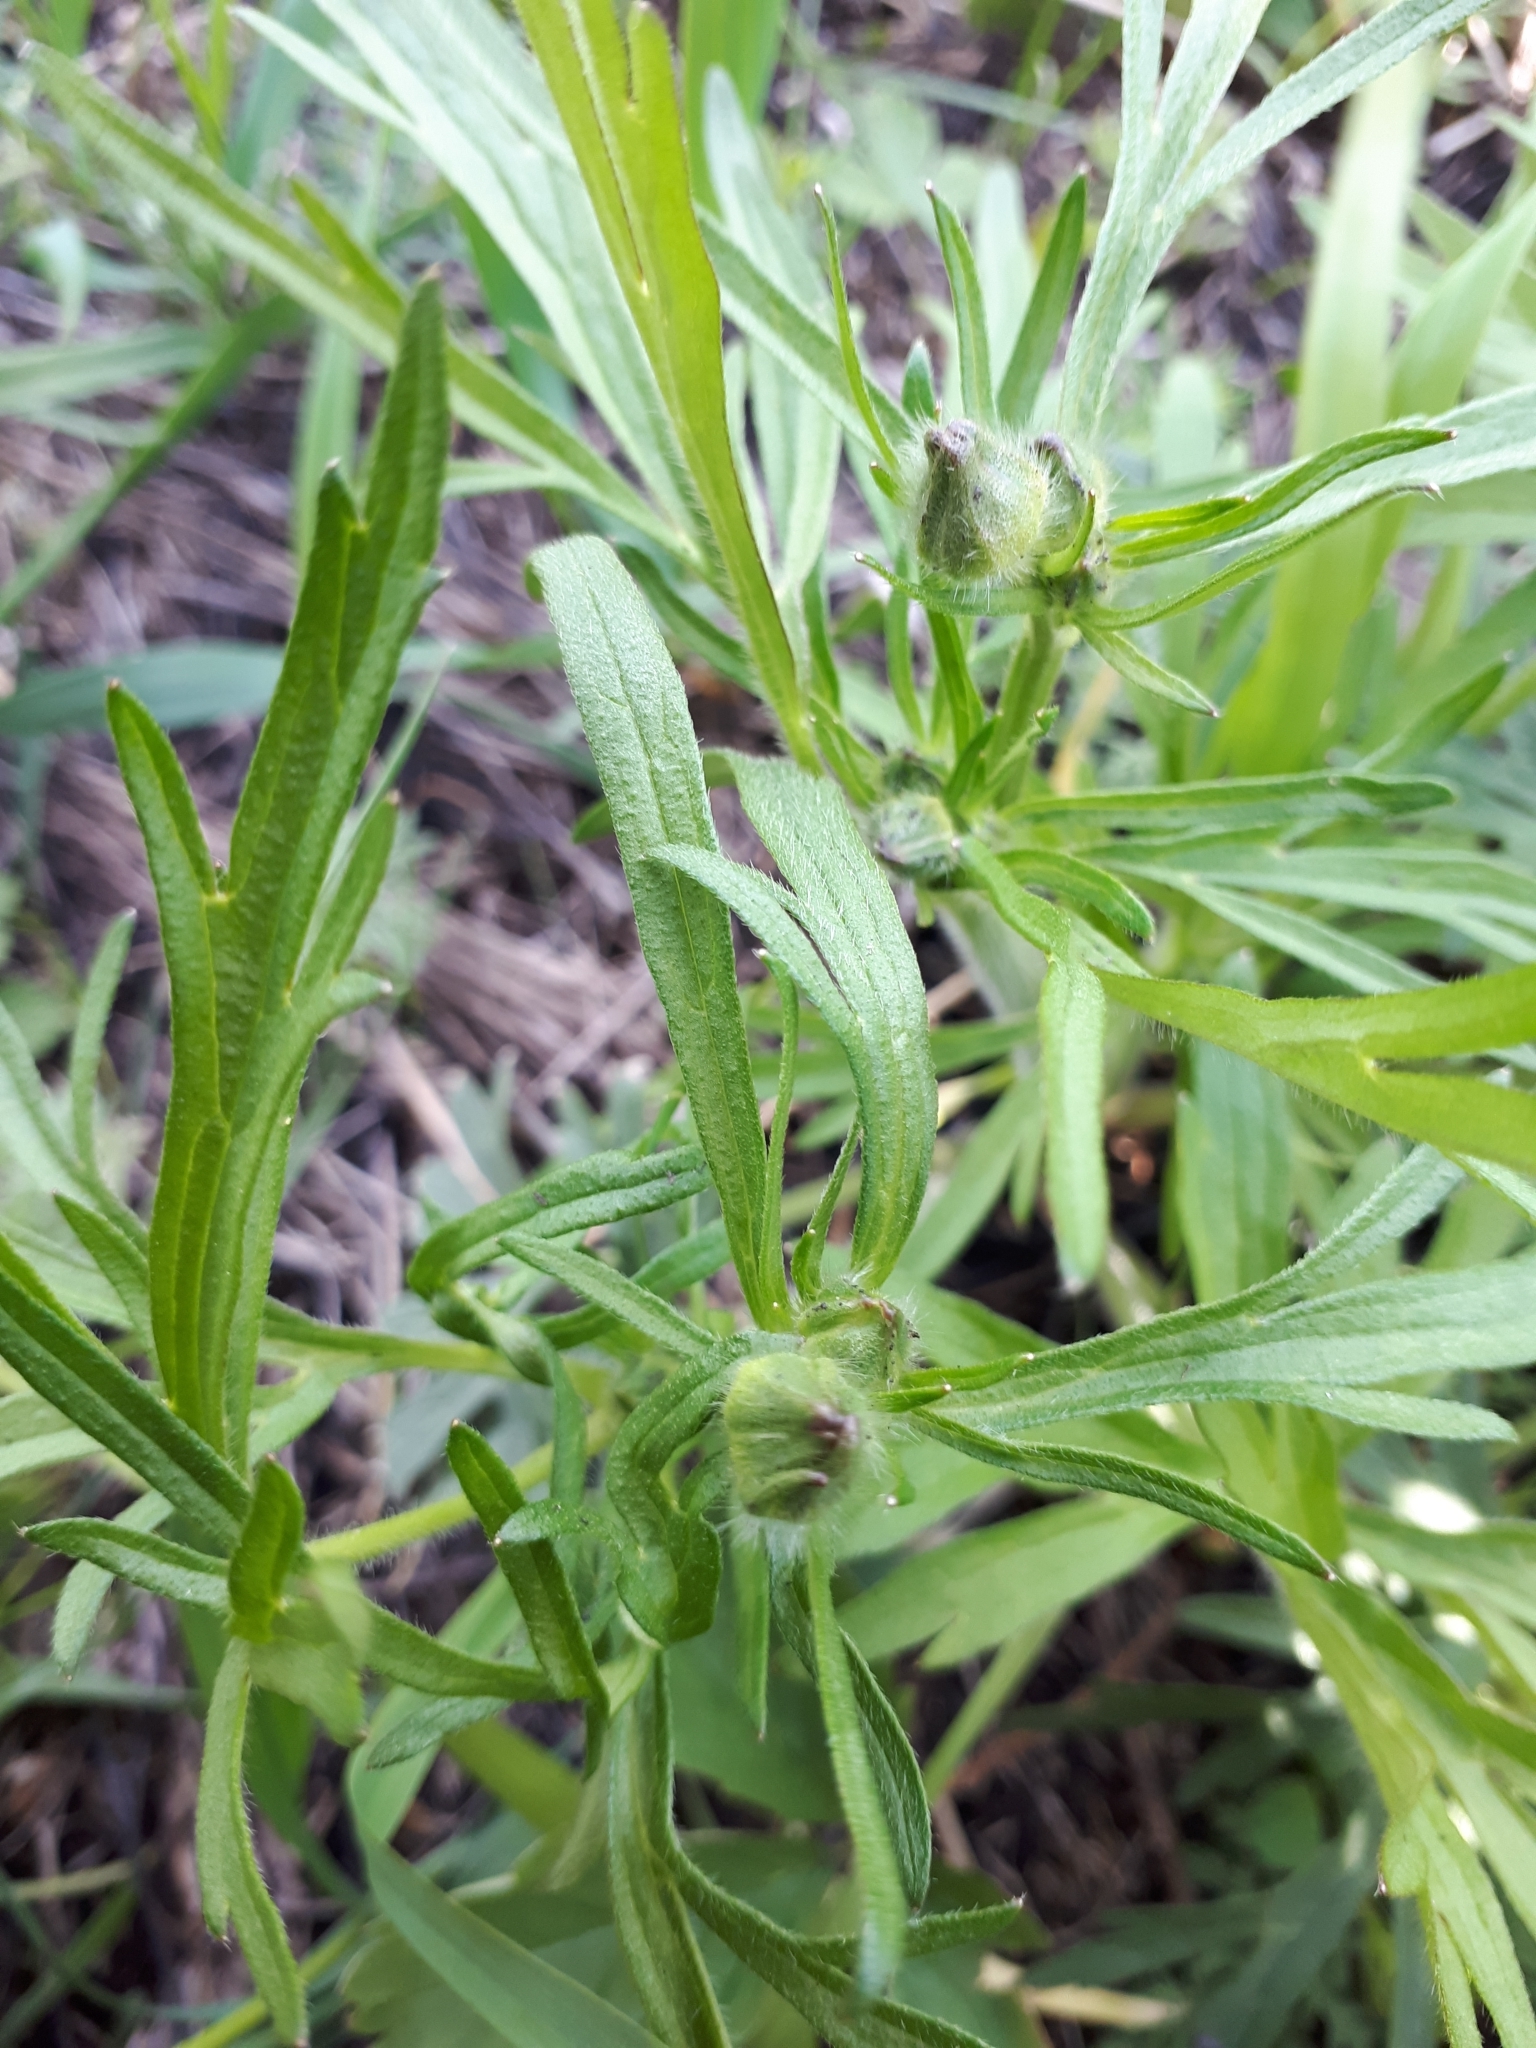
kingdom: Plantae
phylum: Tracheophyta
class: Magnoliopsida
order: Ranunculales
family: Ranunculaceae
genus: Ranunculus
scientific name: Ranunculus polyanthemos
